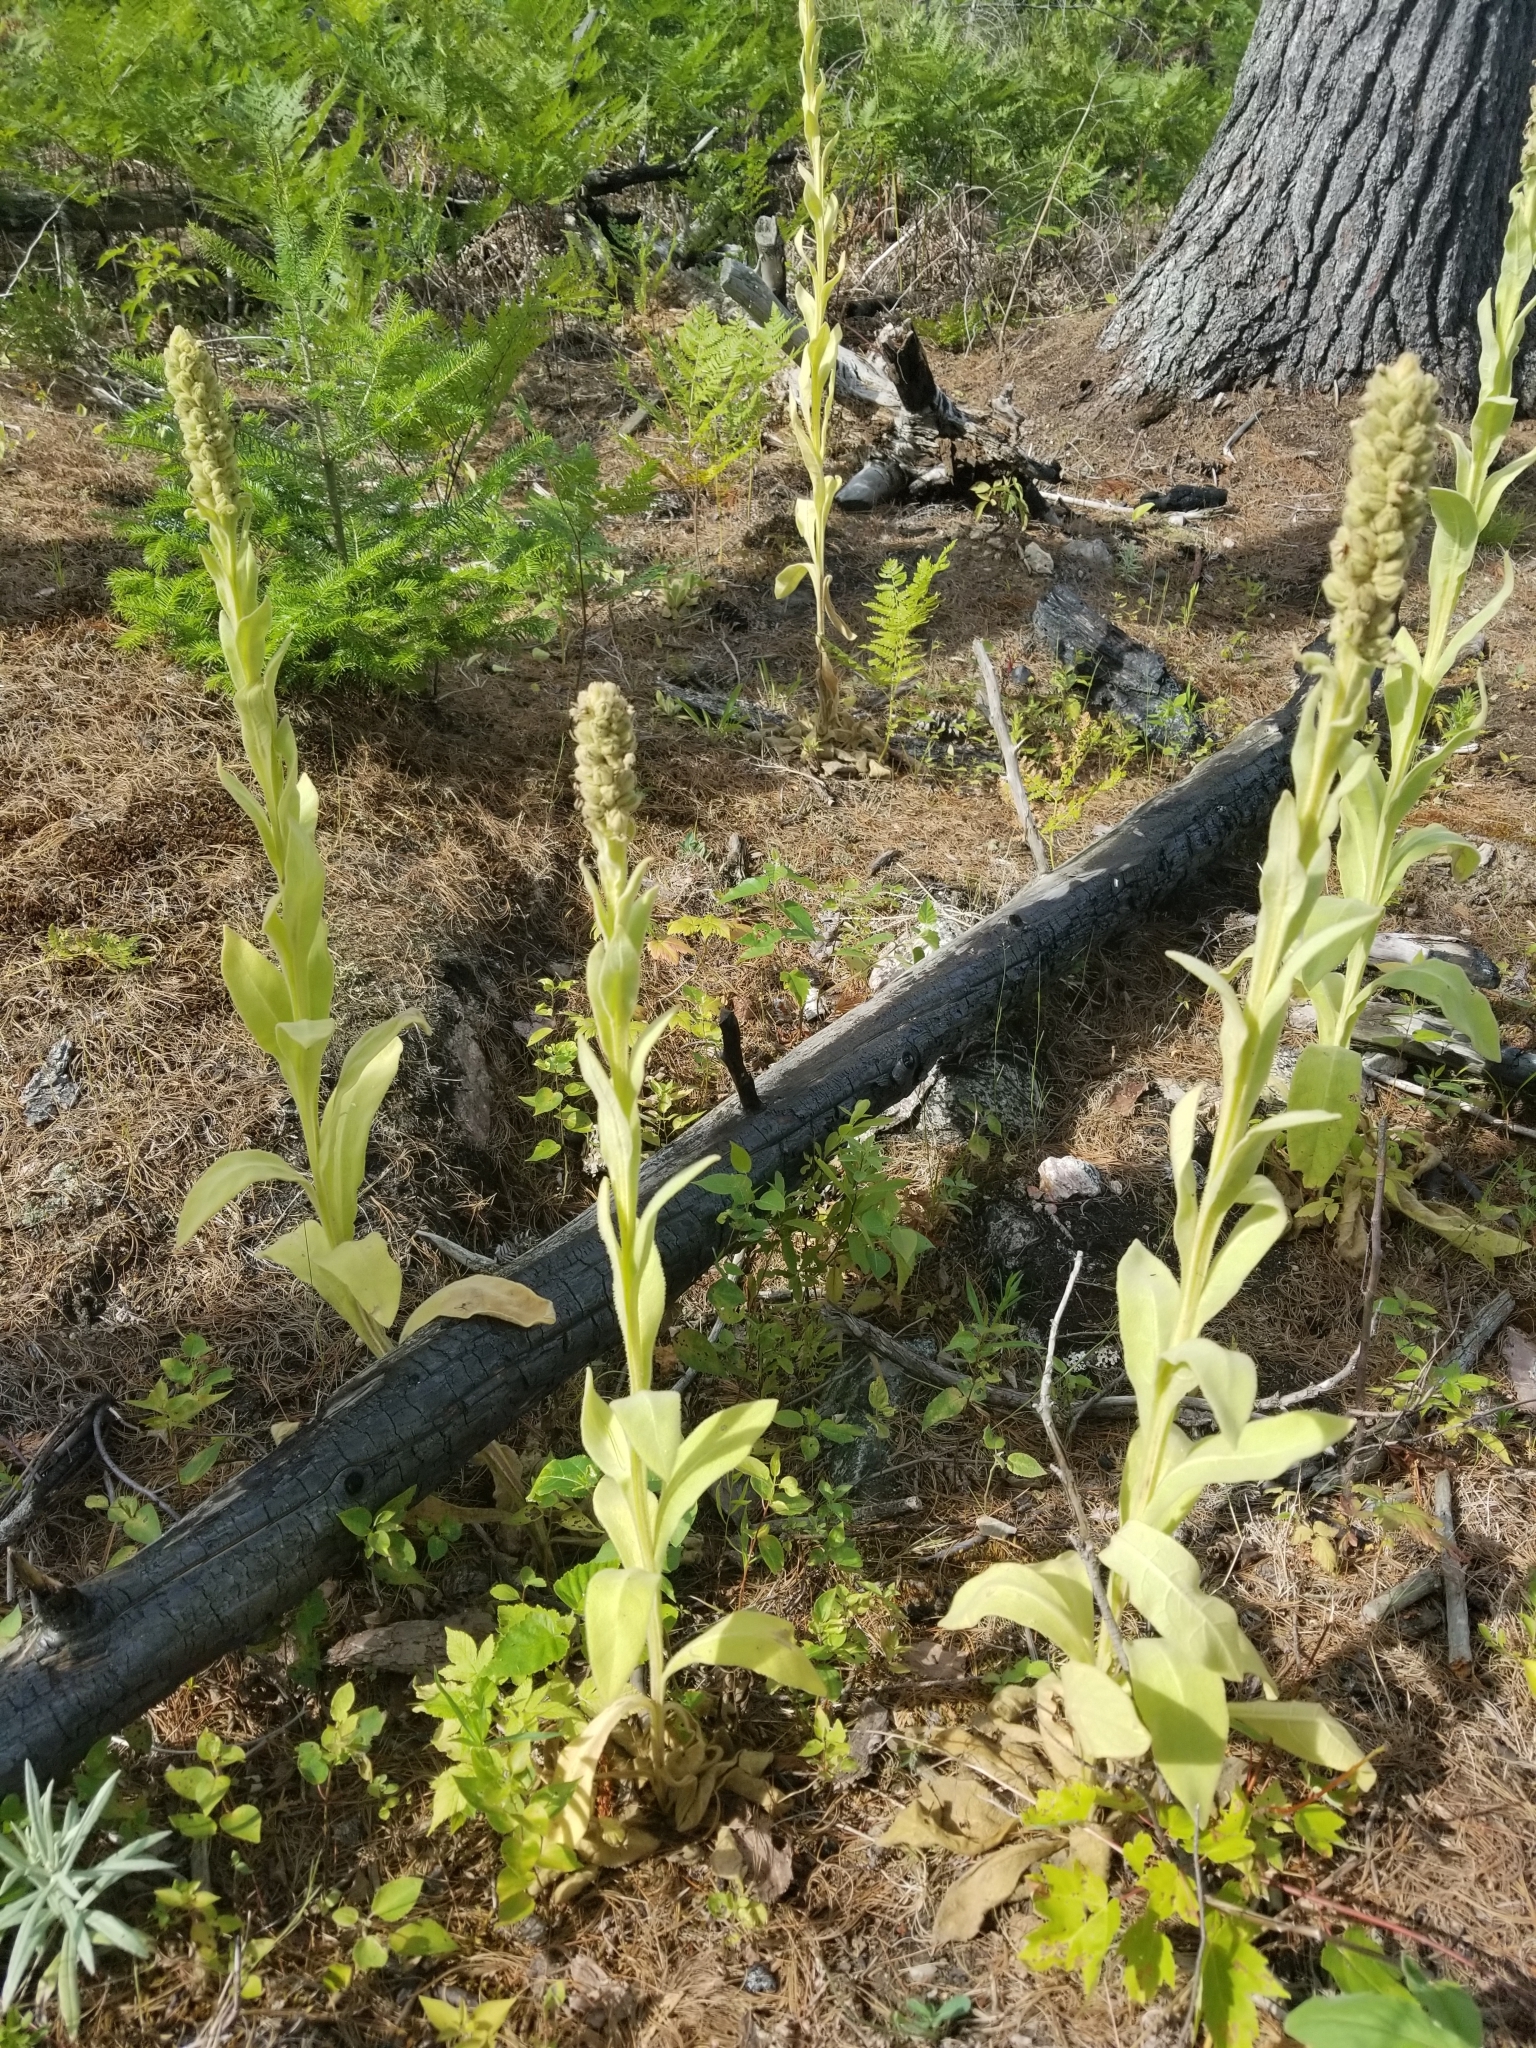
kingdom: Plantae
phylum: Tracheophyta
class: Magnoliopsida
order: Lamiales
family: Scrophulariaceae
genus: Verbascum
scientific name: Verbascum thapsus
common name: Common mullein
